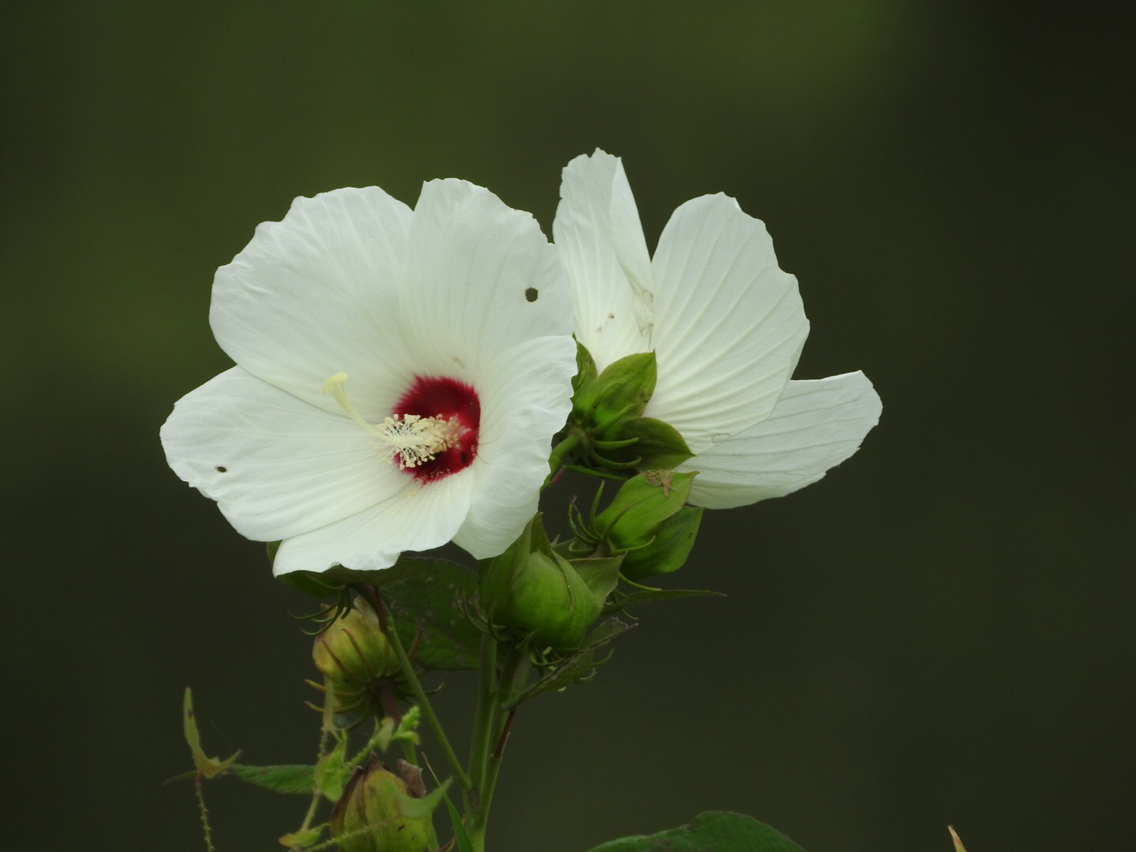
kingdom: Plantae
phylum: Tracheophyta
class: Magnoliopsida
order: Malvales
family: Malvaceae
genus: Hibiscus
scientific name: Hibiscus moscheutos
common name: Common rose-mallow
